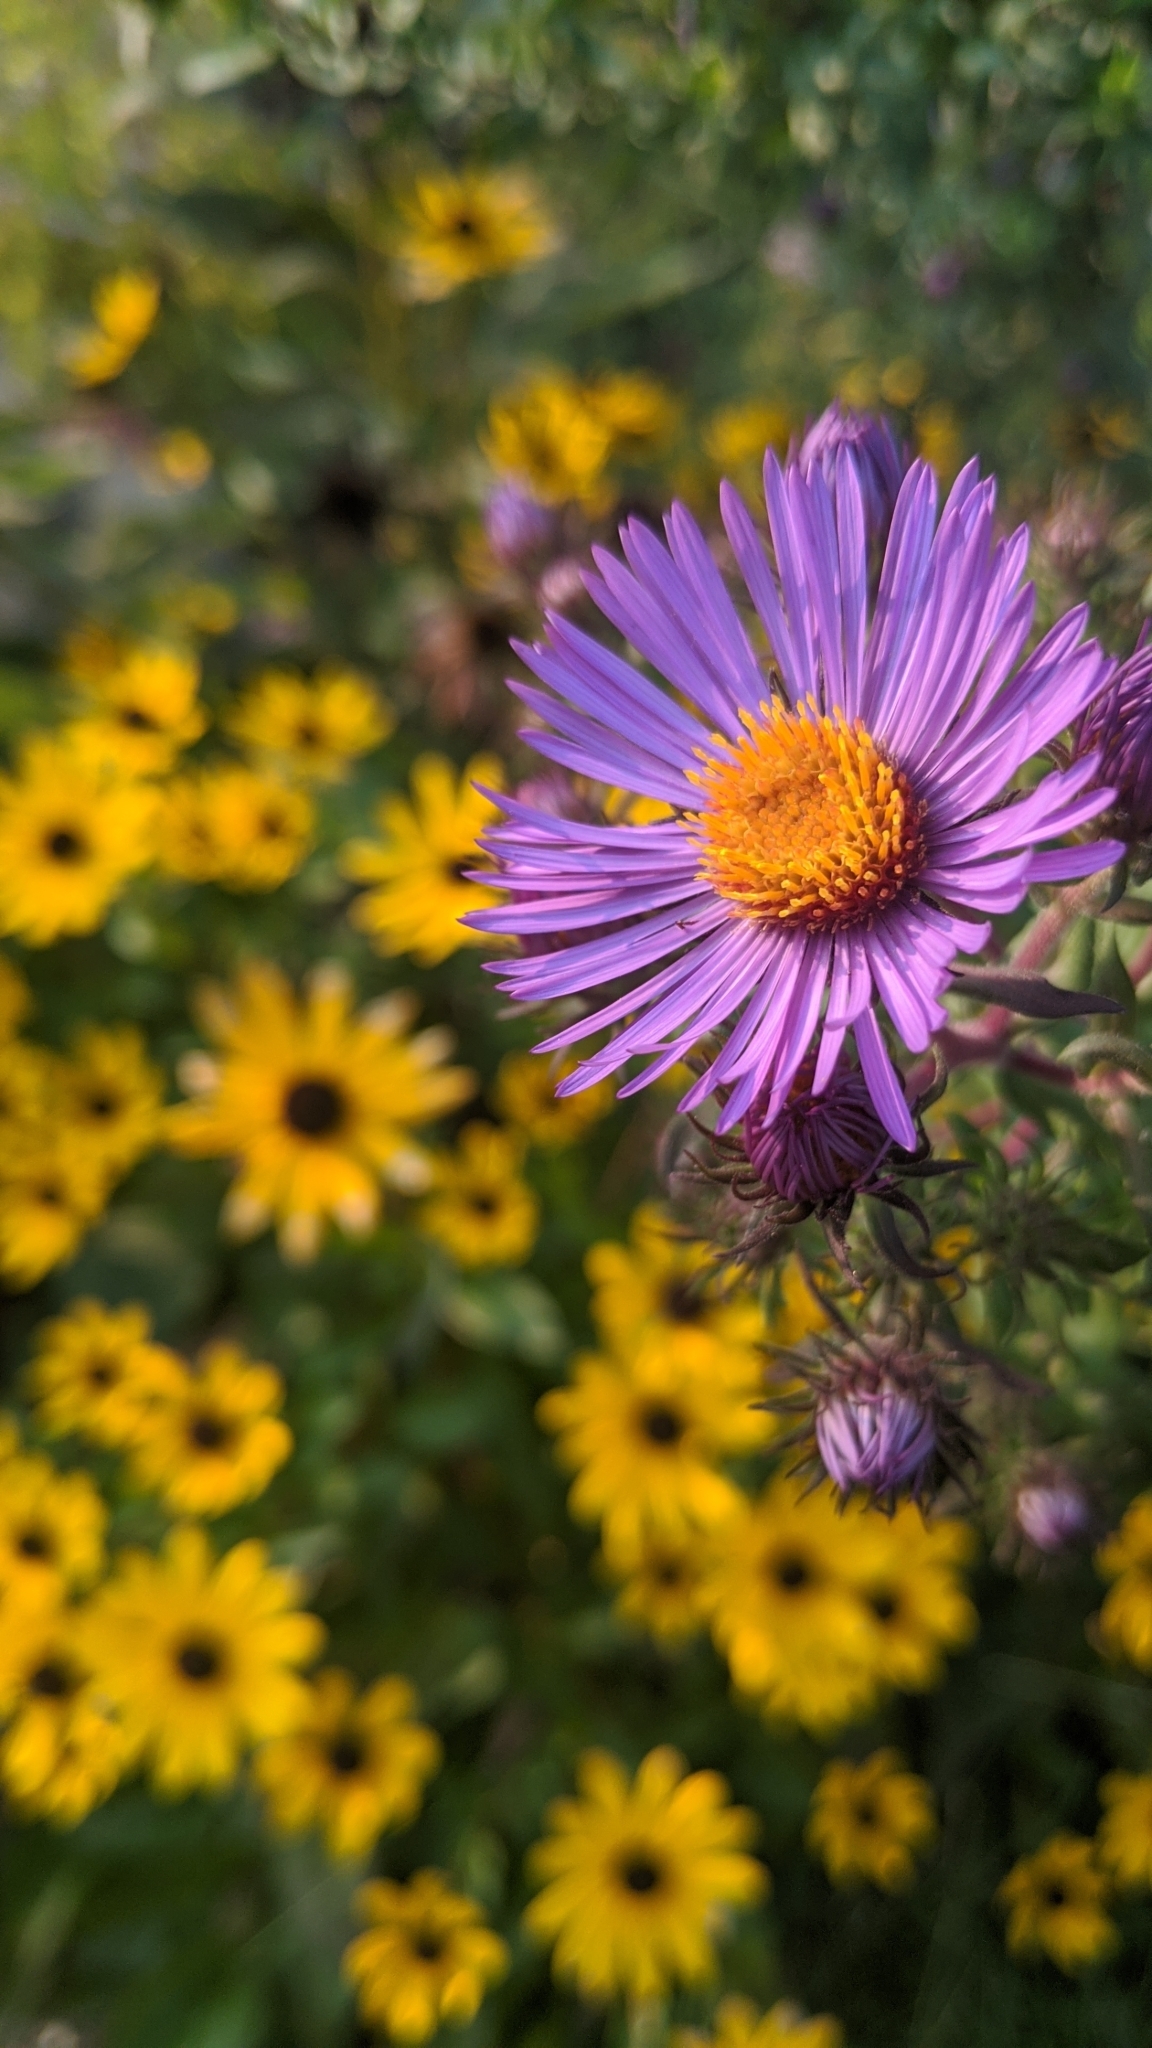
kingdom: Plantae
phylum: Tracheophyta
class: Magnoliopsida
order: Asterales
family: Asteraceae
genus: Symphyotrichum
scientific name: Symphyotrichum novae-angliae
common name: Michaelmas daisy
